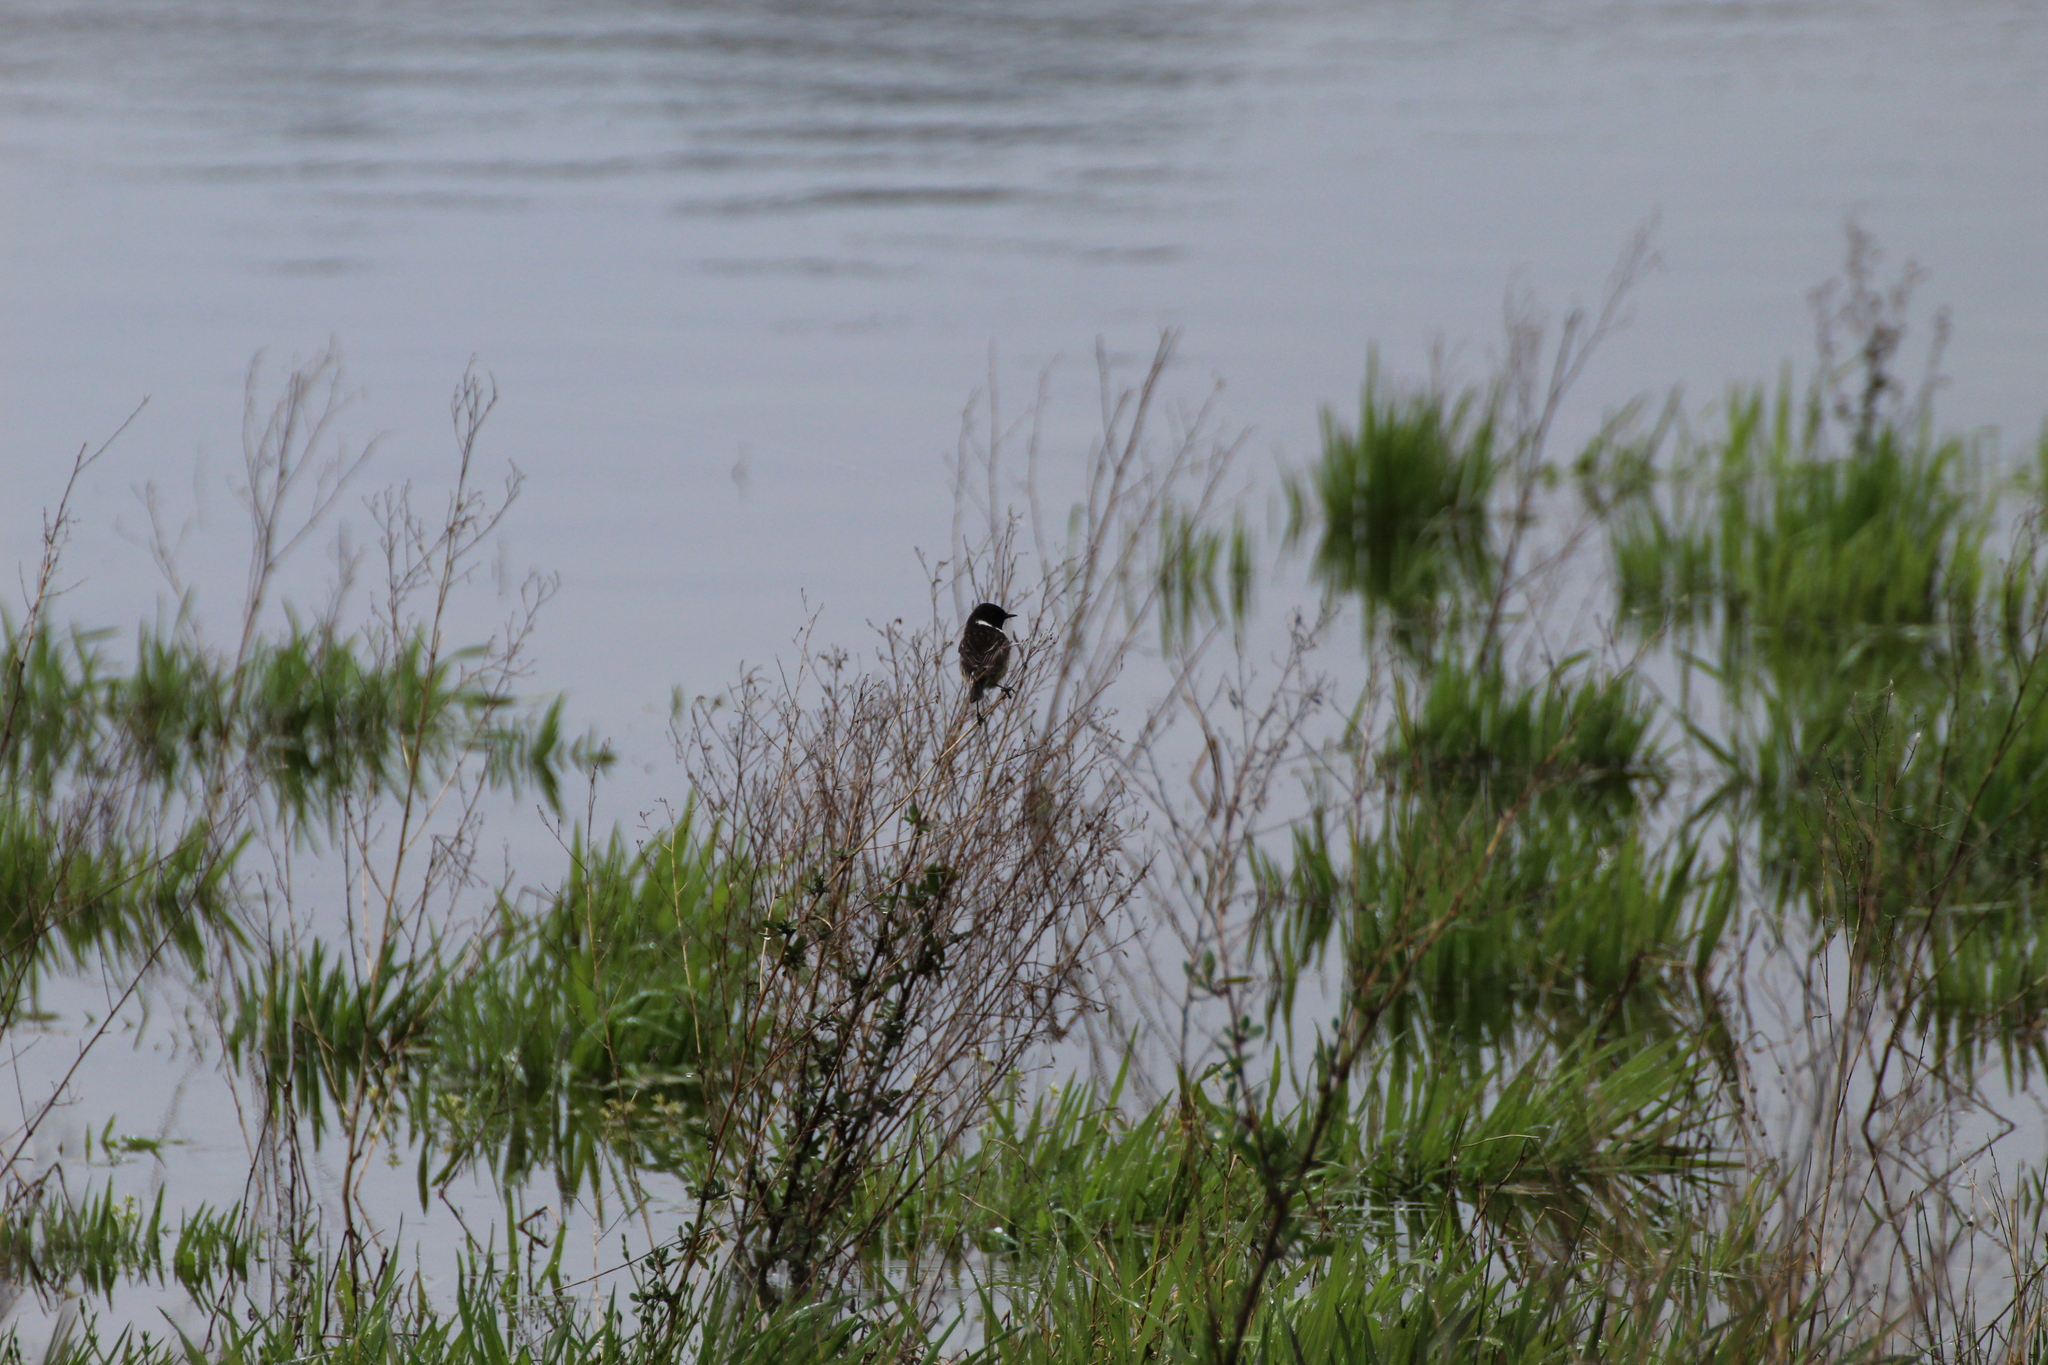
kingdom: Animalia
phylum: Chordata
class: Aves
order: Passeriformes
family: Muscicapidae
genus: Saxicola
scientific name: Saxicola rubicola
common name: European stonechat
